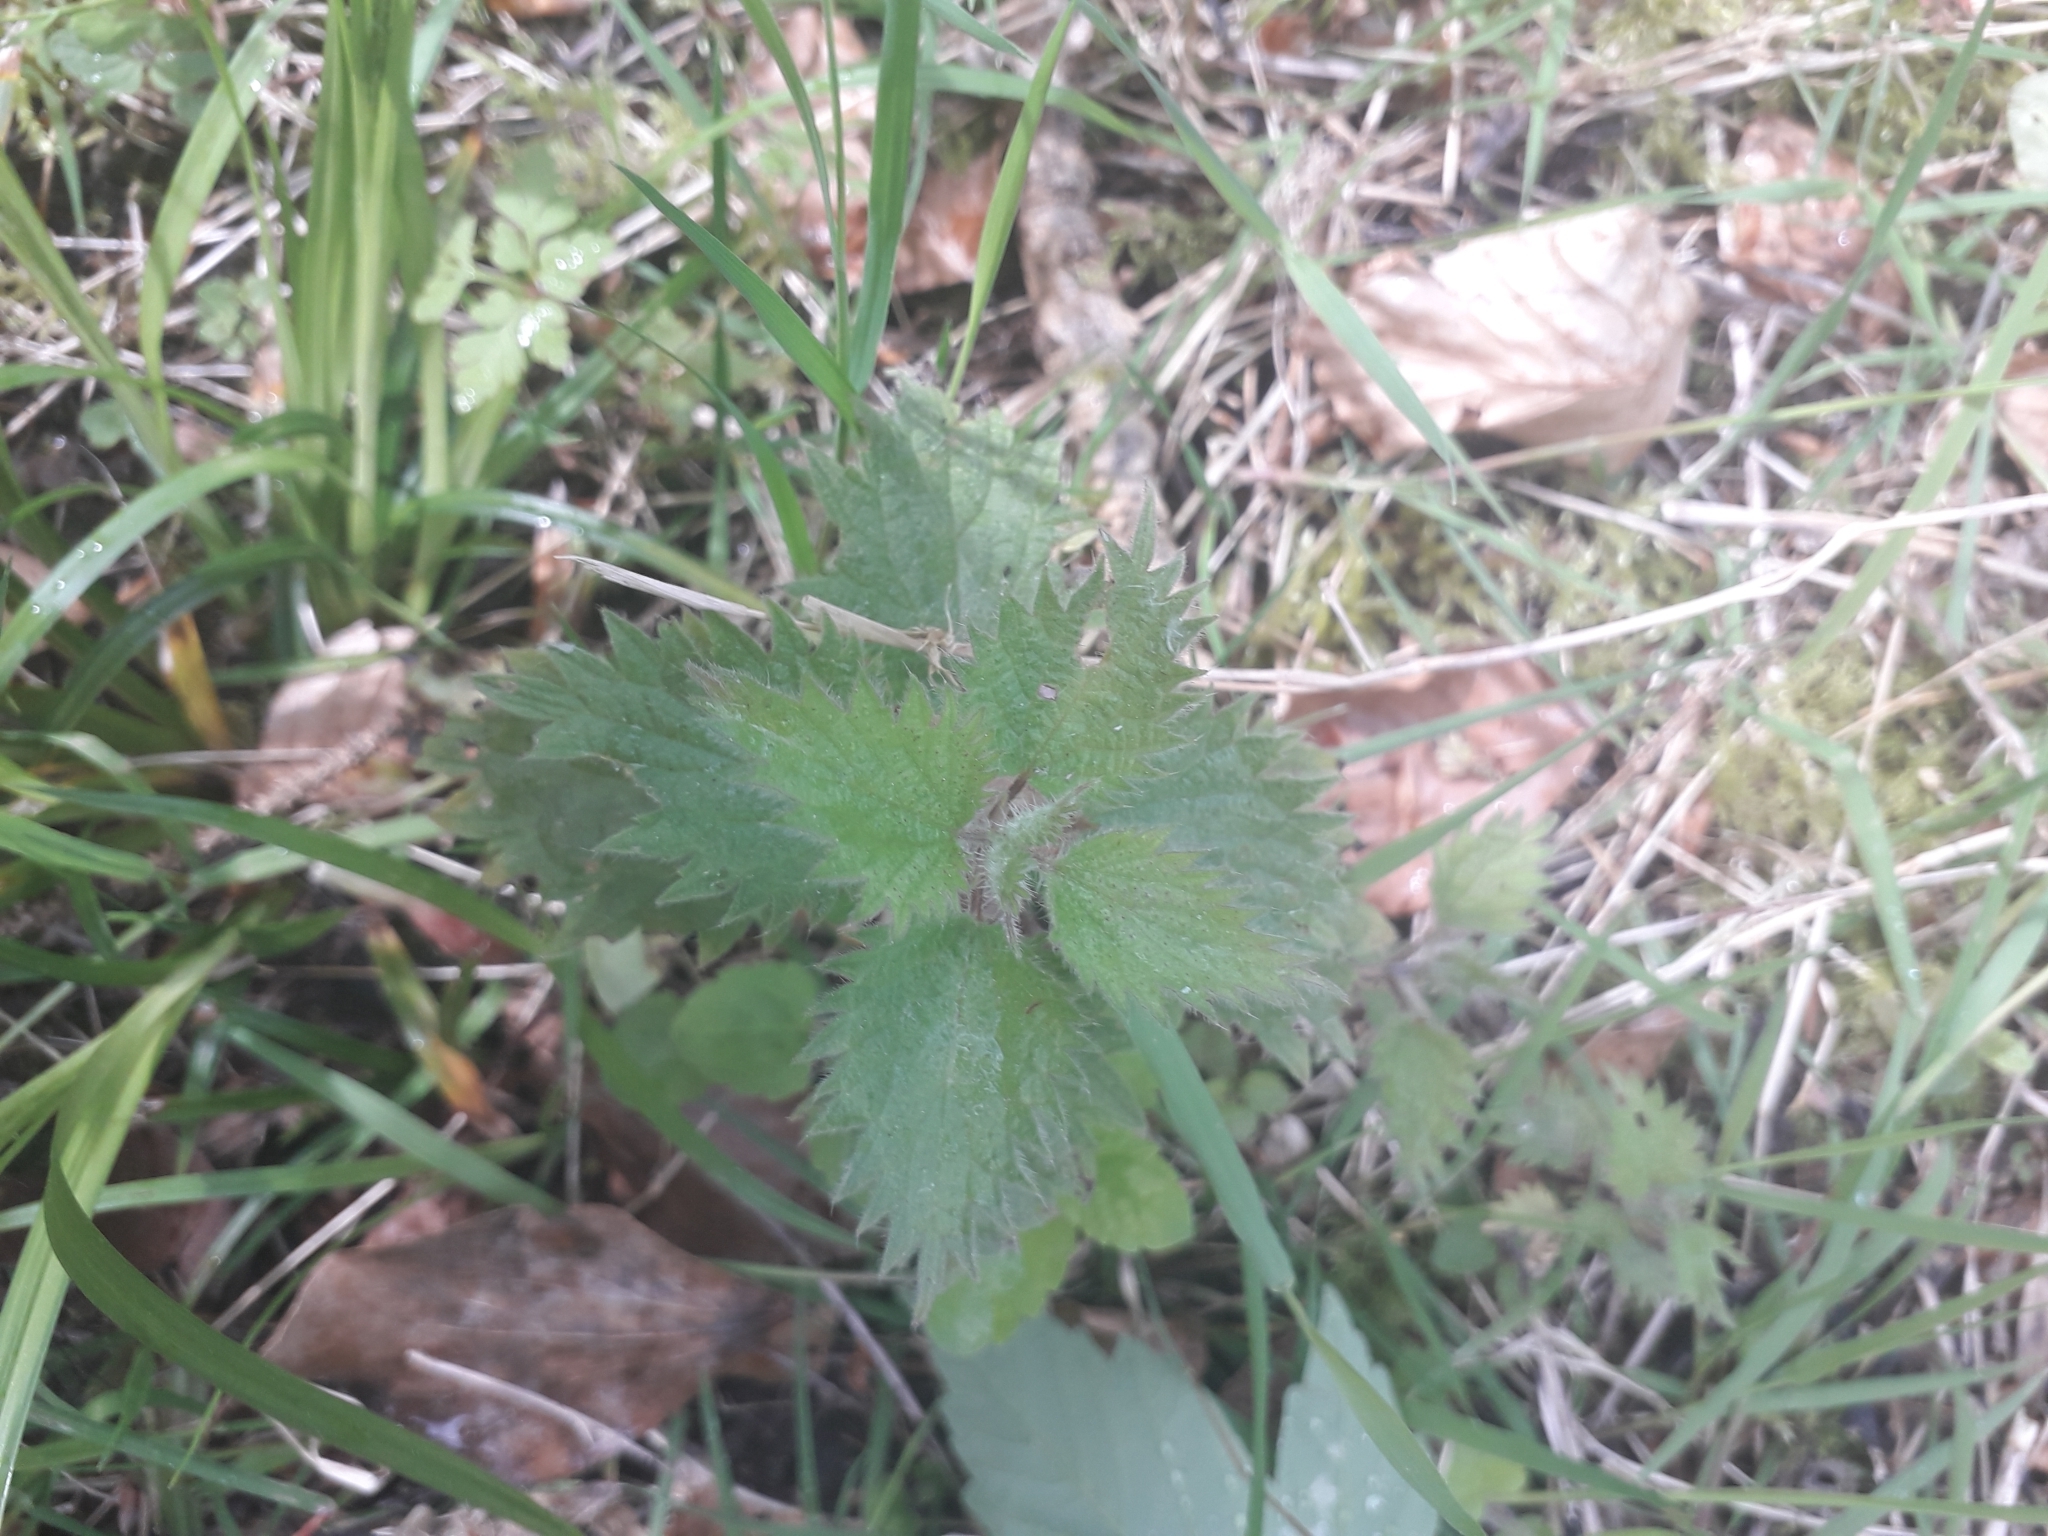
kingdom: Plantae
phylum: Tracheophyta
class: Magnoliopsida
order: Rosales
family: Urticaceae
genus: Urtica
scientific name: Urtica dioica
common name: Common nettle
